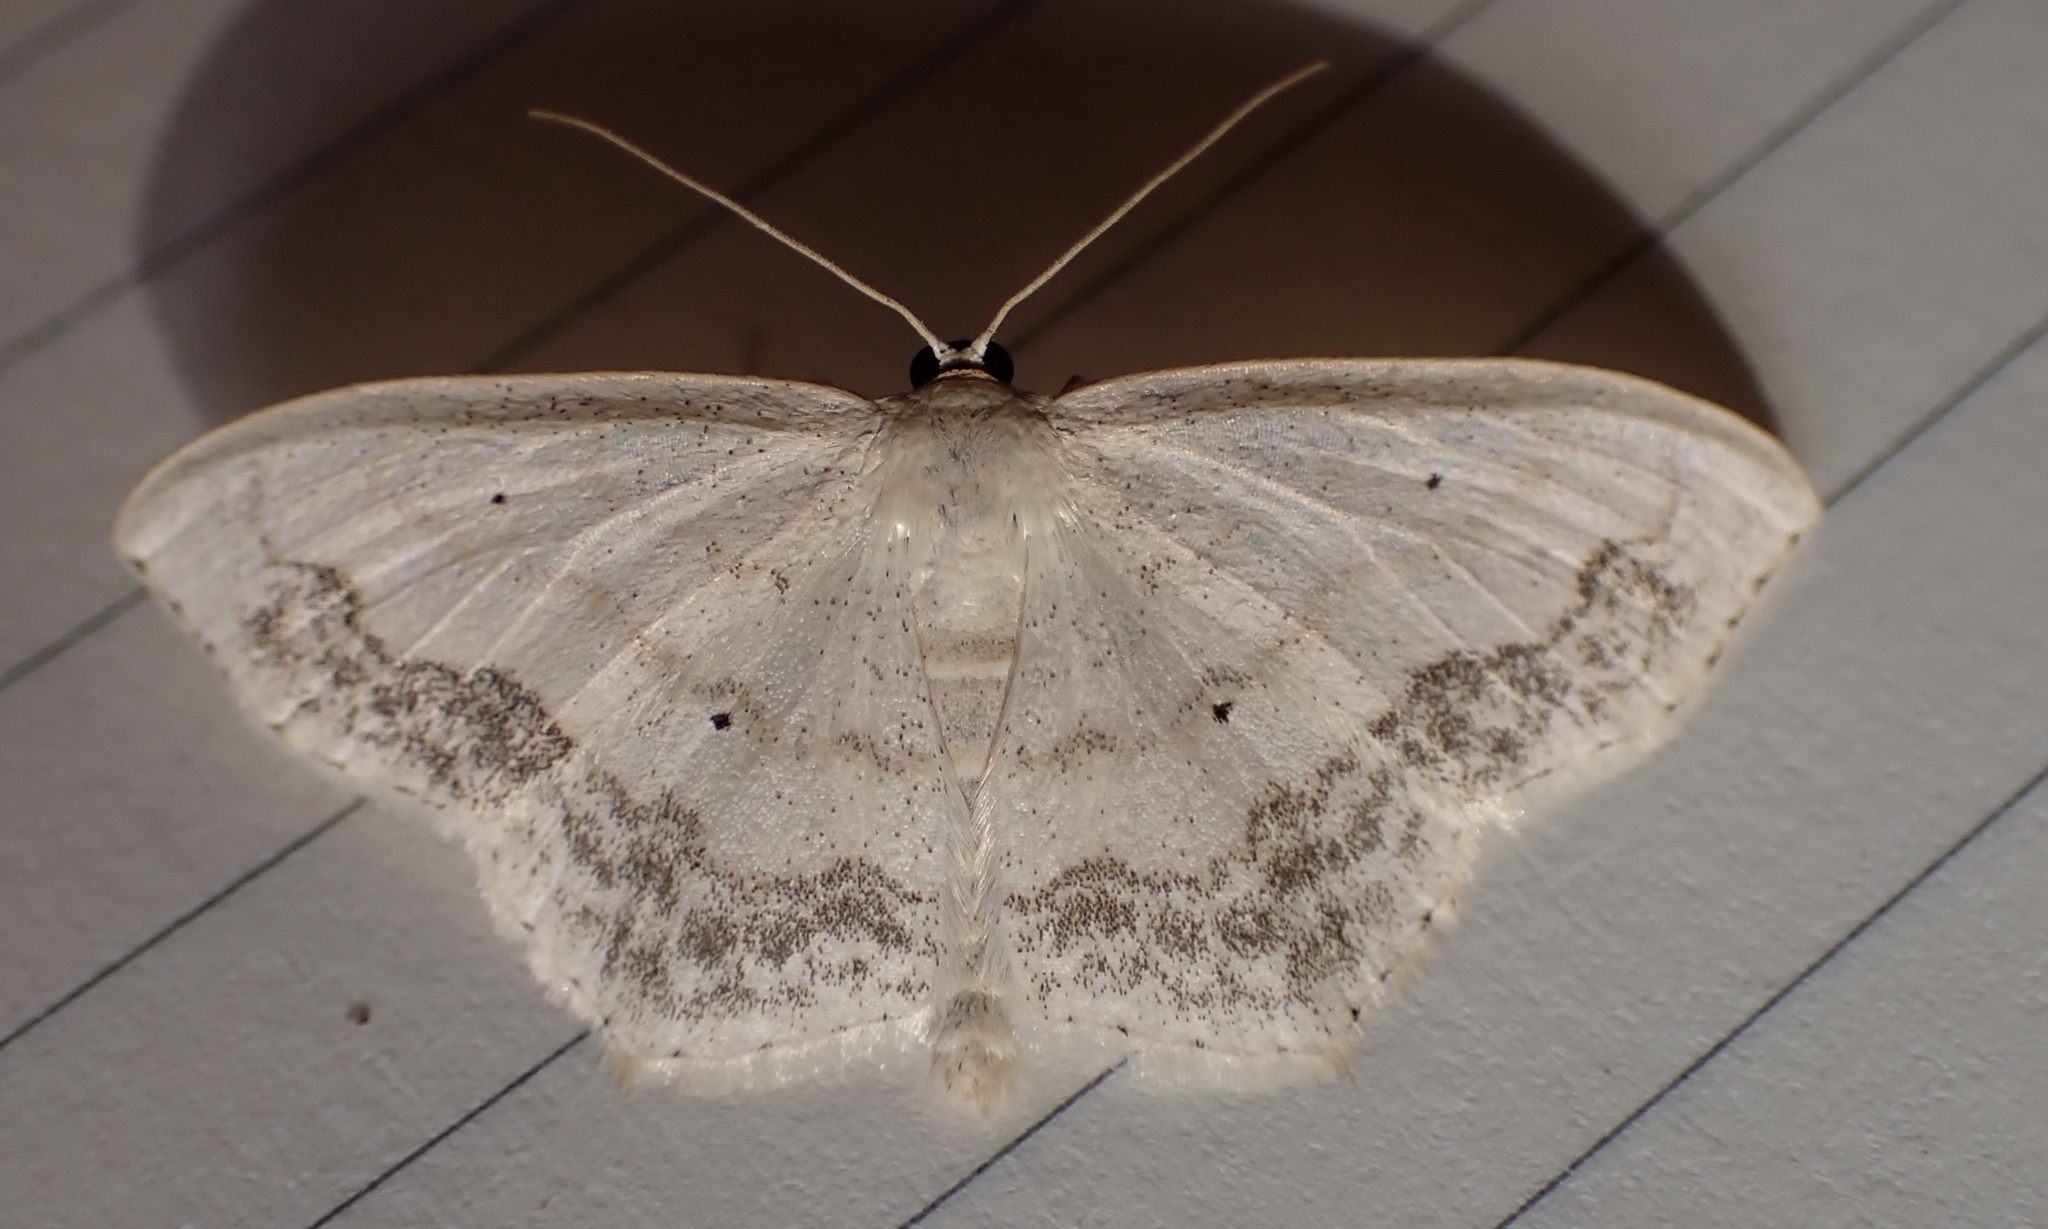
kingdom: Animalia
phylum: Arthropoda
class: Insecta
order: Lepidoptera
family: Geometridae
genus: Scopula
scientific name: Scopula limboundata
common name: Large lace border
